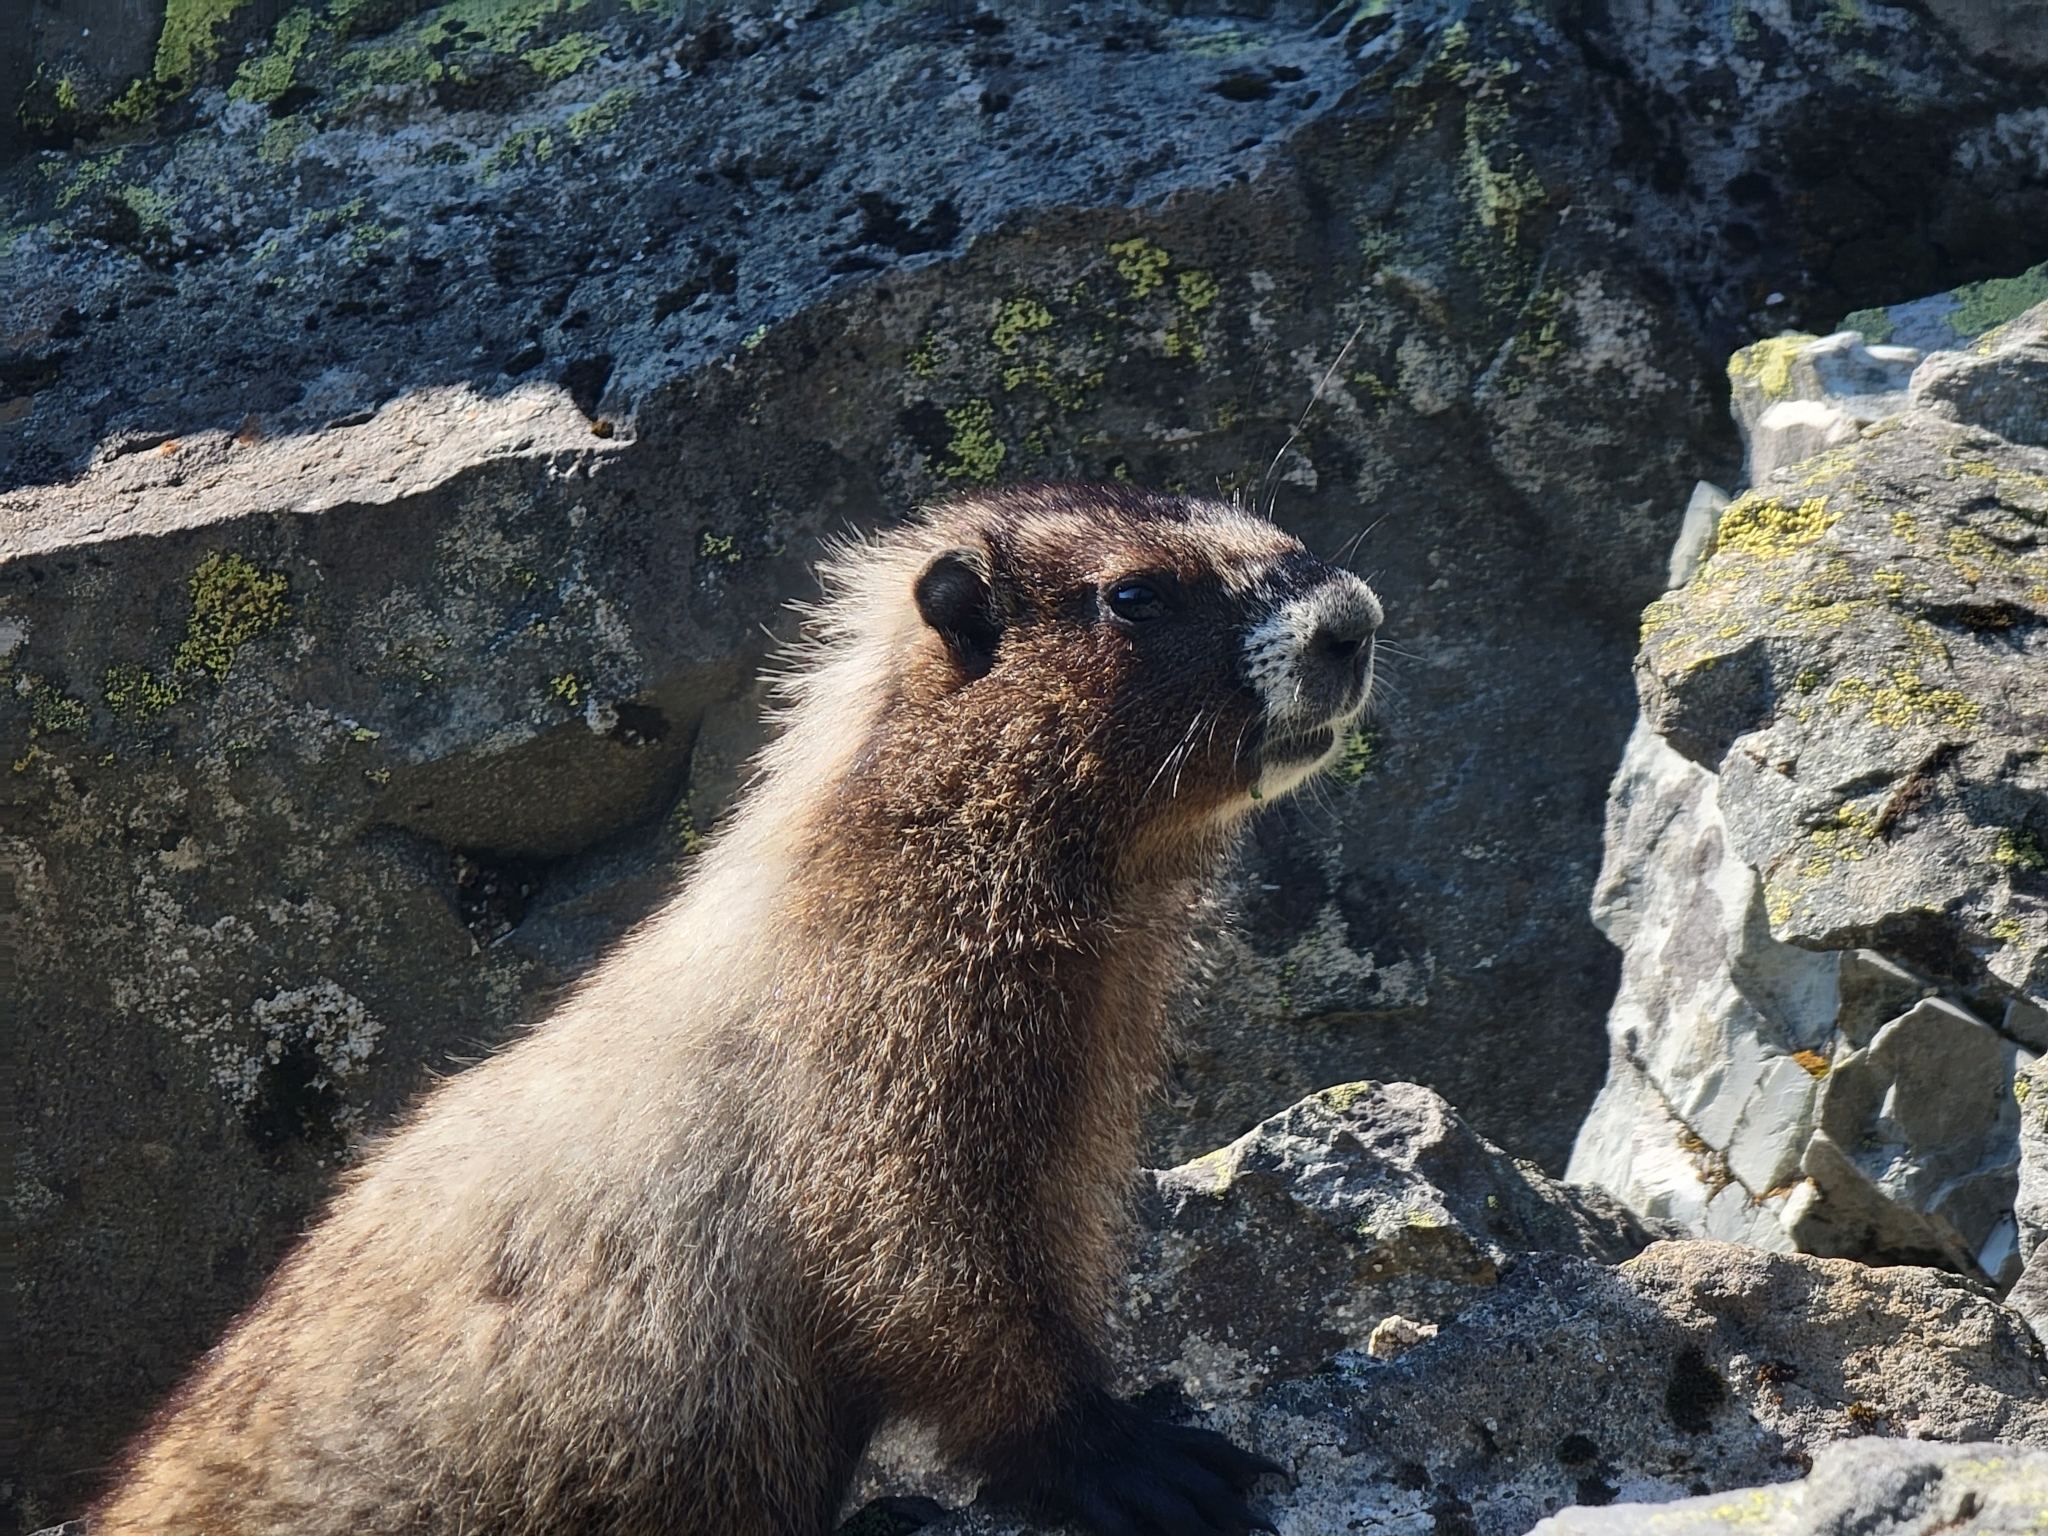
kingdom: Animalia
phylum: Chordata
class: Mammalia
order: Rodentia
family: Sciuridae
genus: Marmota
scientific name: Marmota caligata
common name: Hoary marmot
